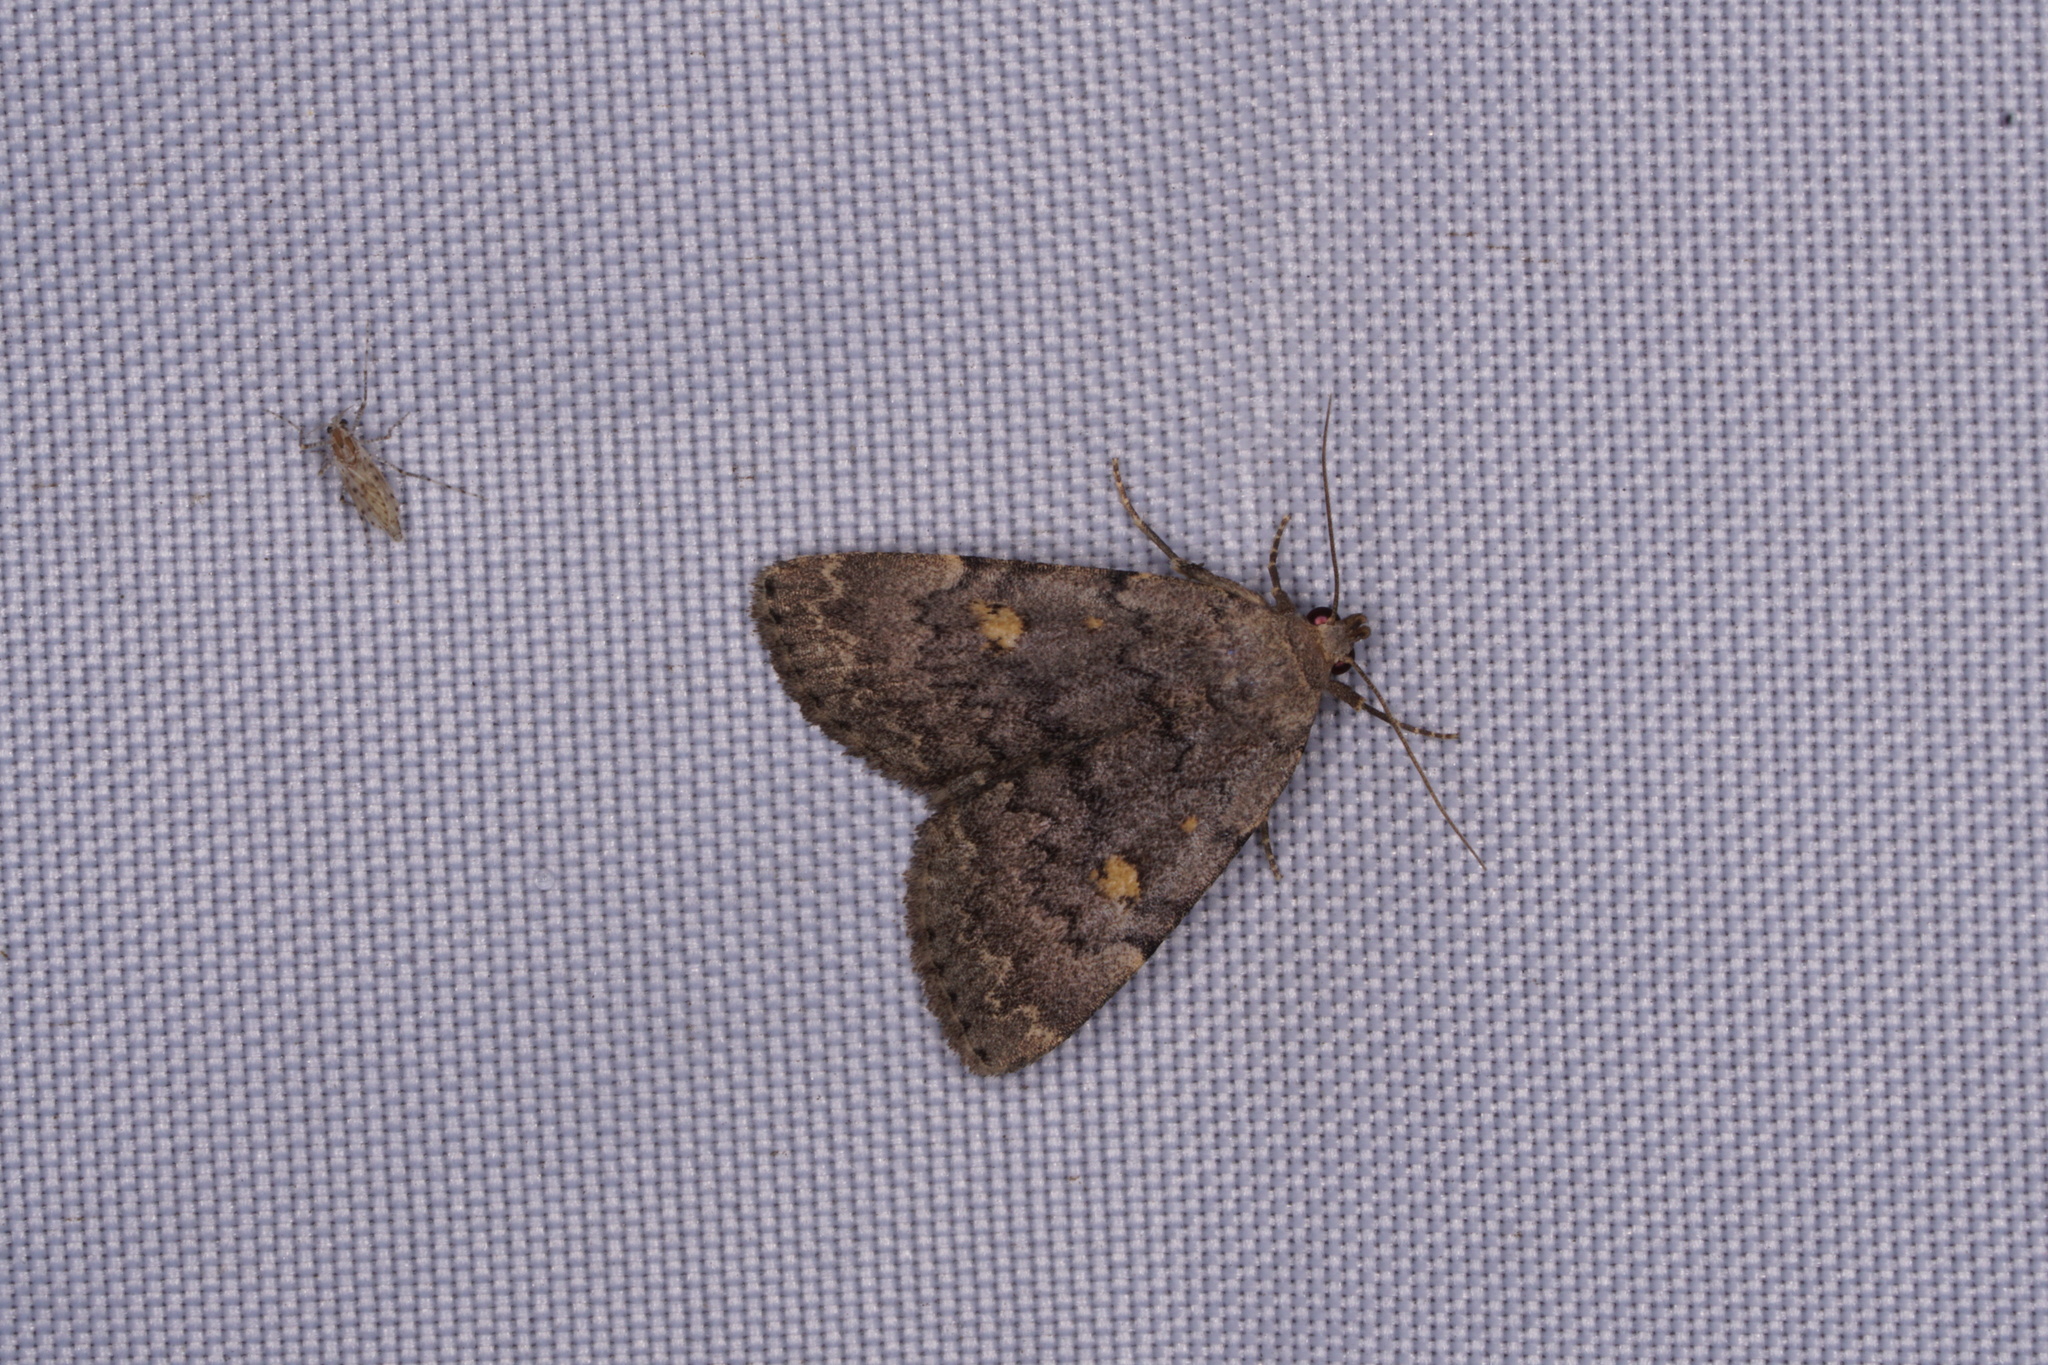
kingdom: Animalia
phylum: Arthropoda
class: Insecta
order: Lepidoptera
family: Erebidae
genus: Idia
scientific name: Idia aemula
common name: Common idia moth
